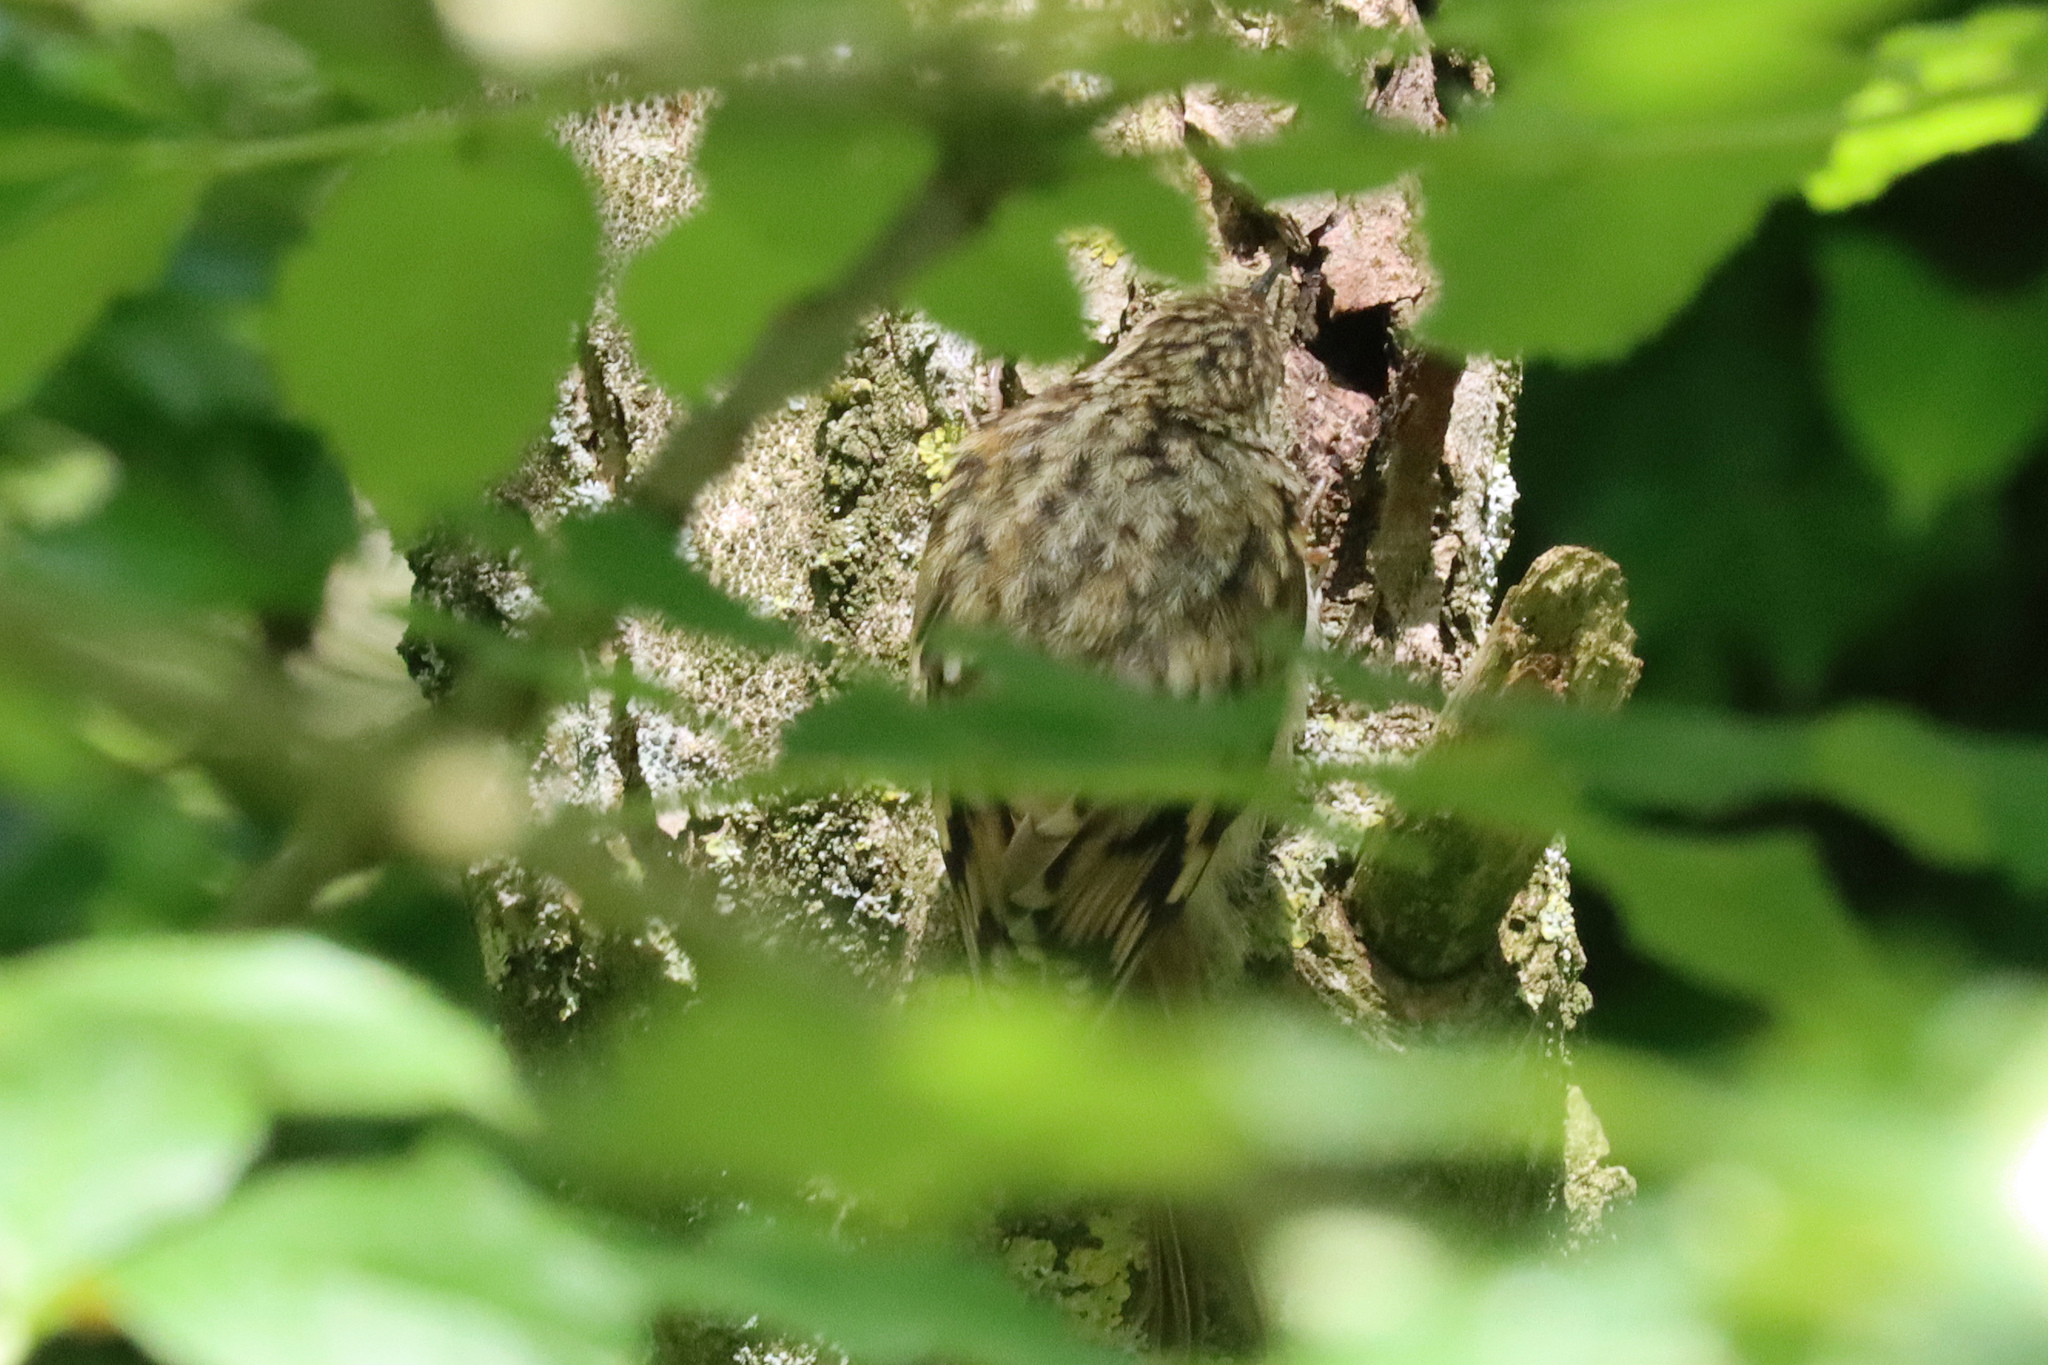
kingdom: Animalia
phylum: Chordata
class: Aves
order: Passeriformes
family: Certhiidae
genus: Certhia
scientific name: Certhia familiaris
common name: Eurasian treecreeper
